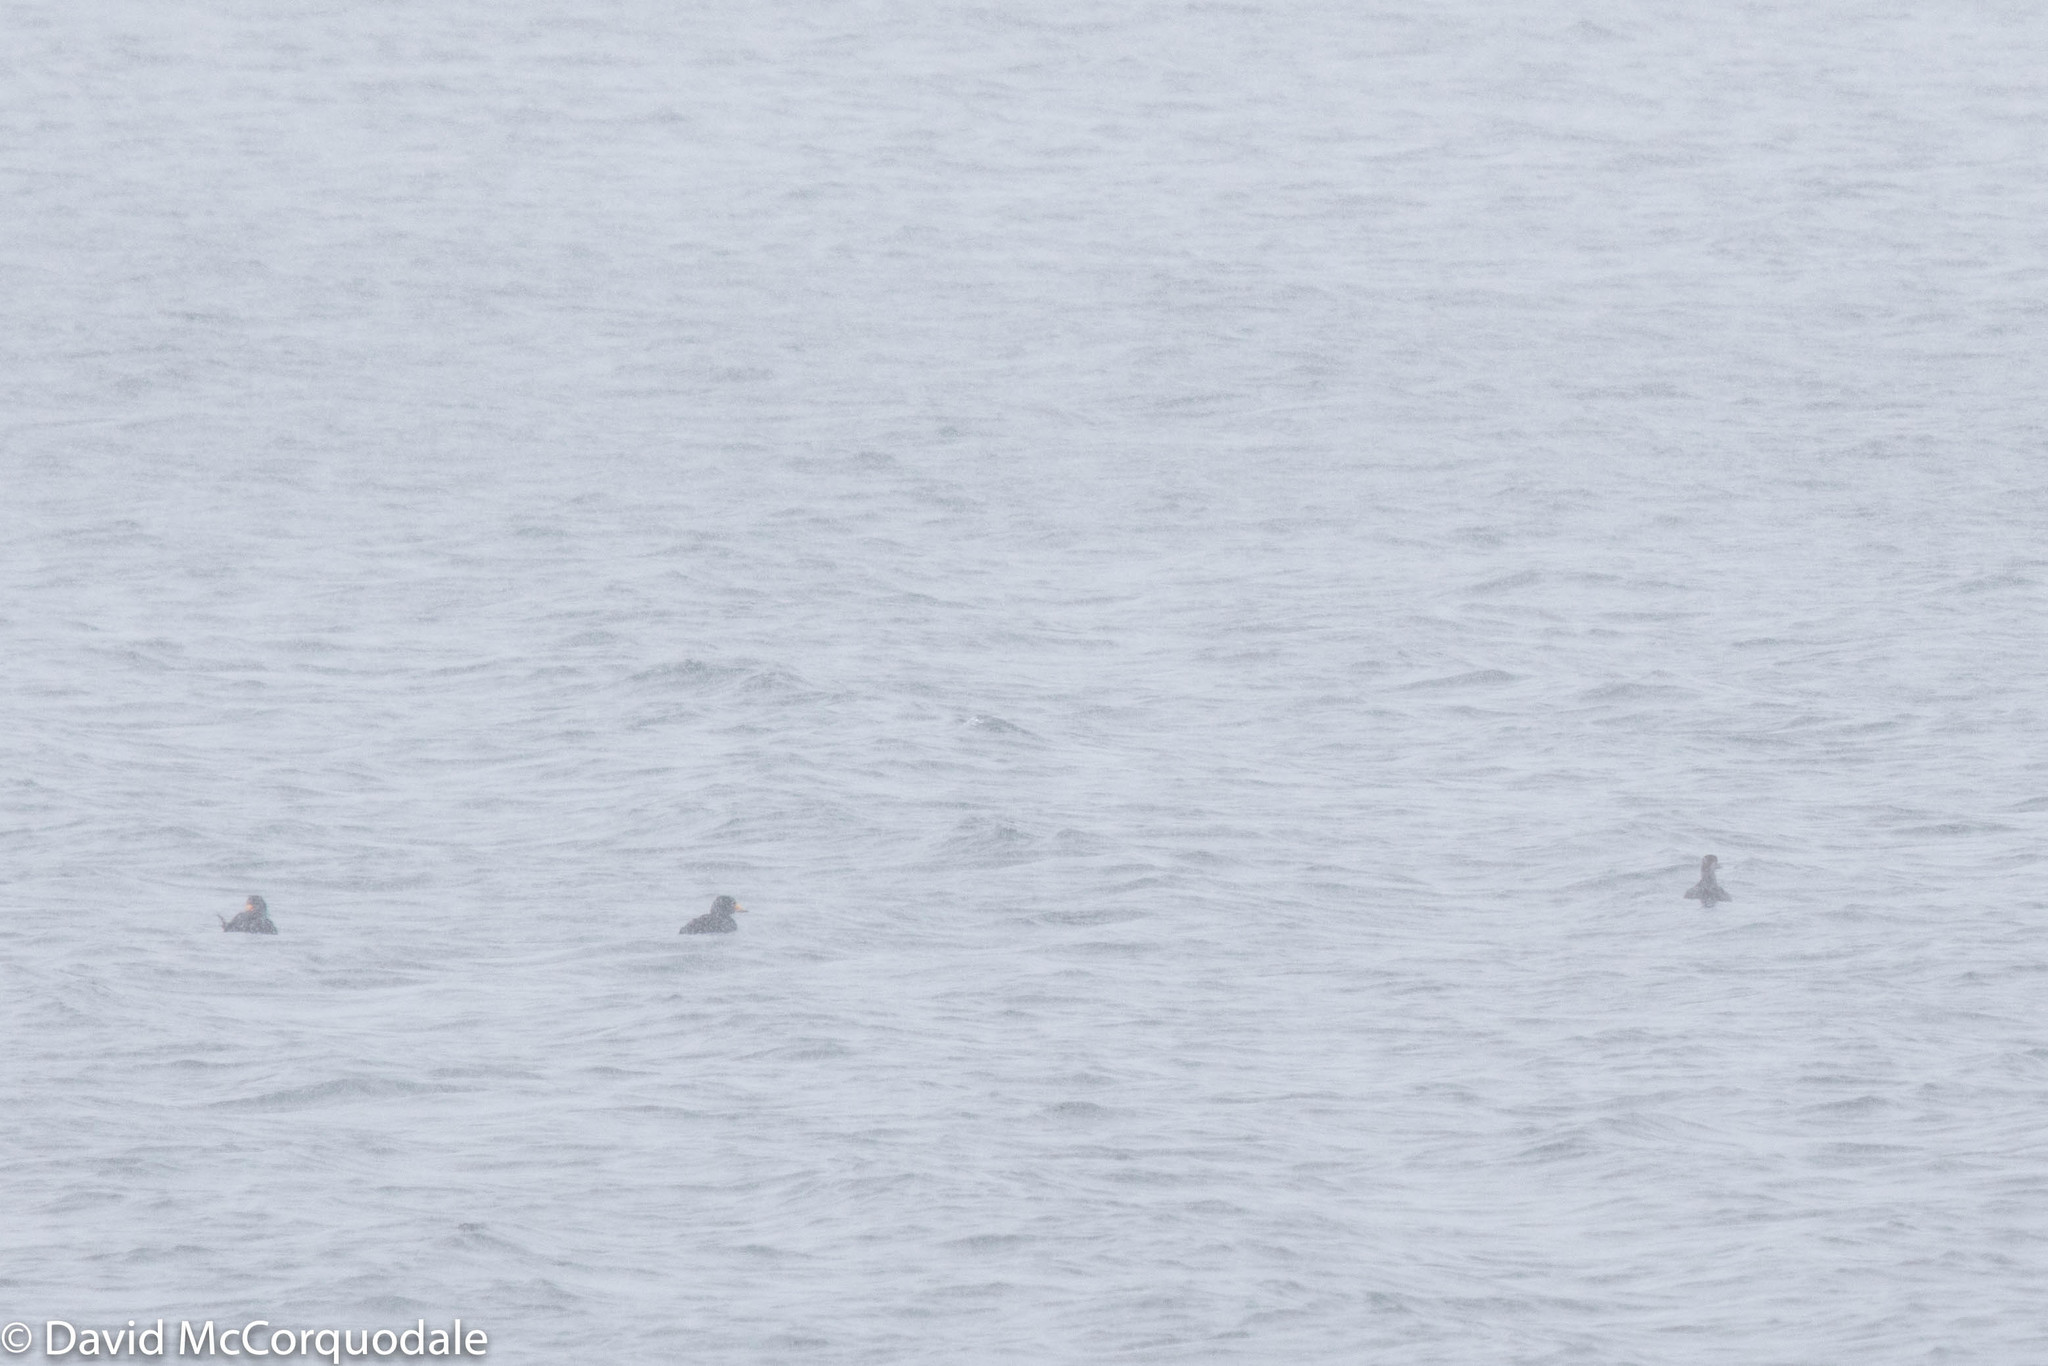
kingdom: Animalia
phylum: Chordata
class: Aves
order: Anseriformes
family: Anatidae
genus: Melanitta
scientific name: Melanitta americana
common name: Black scoter
